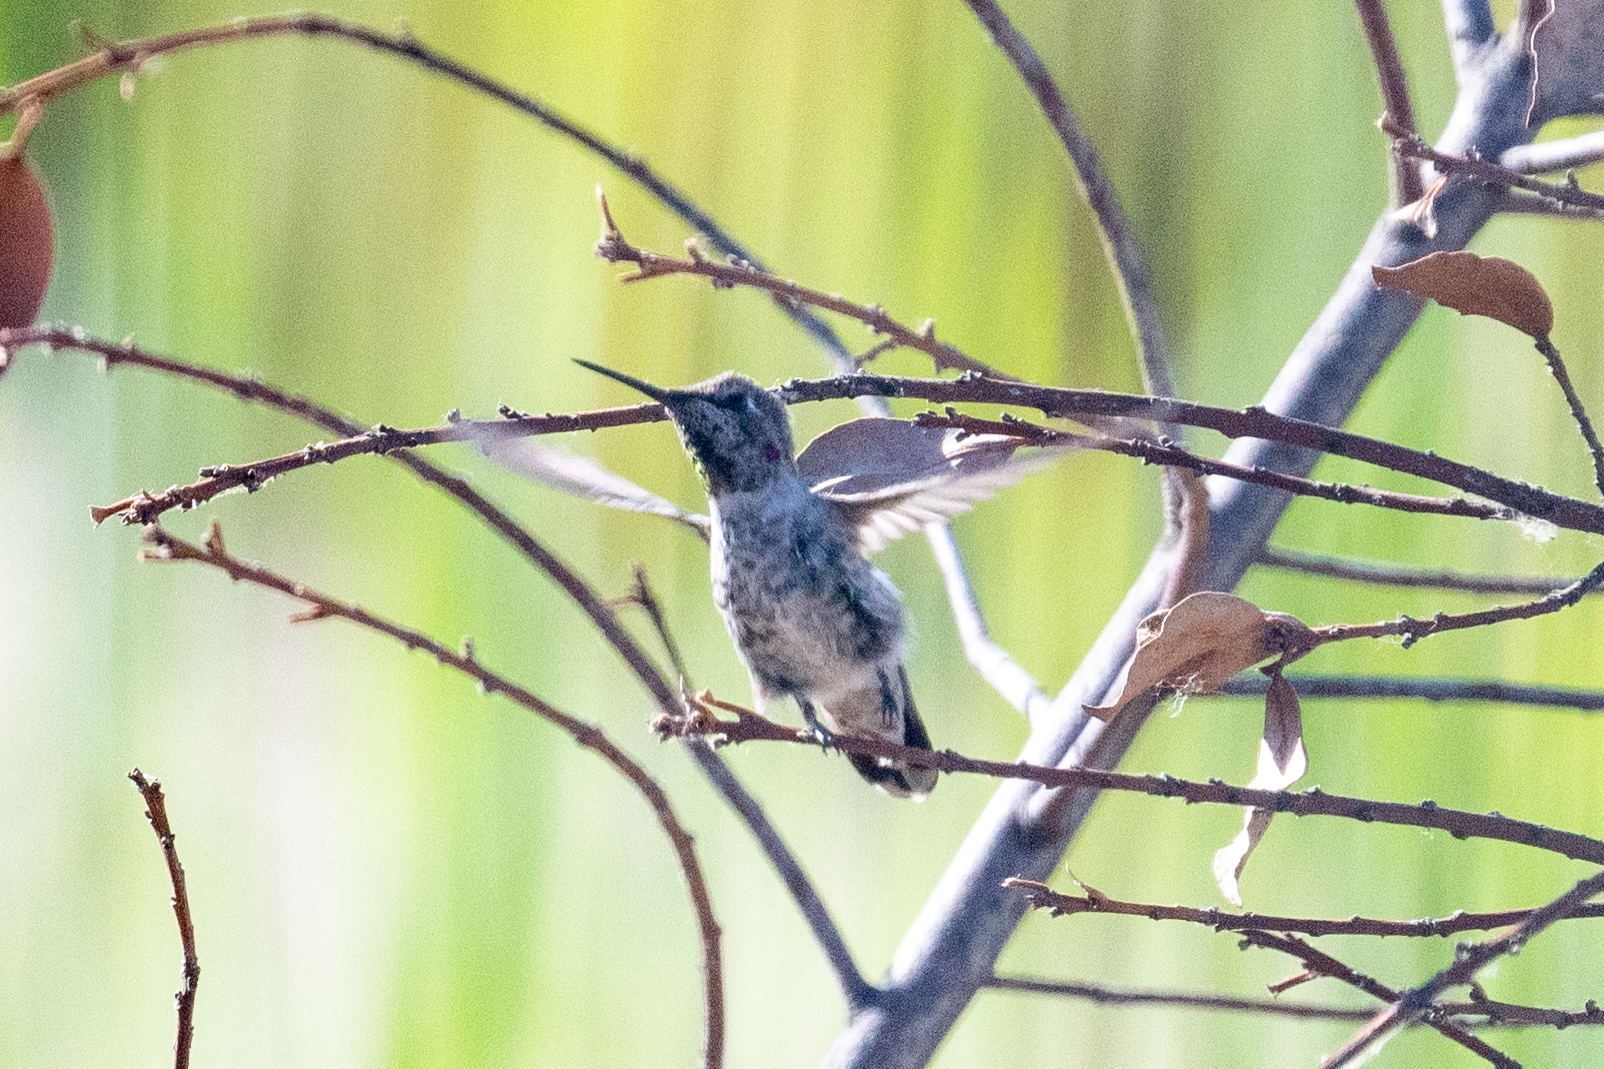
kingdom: Animalia
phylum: Chordata
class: Aves
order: Apodiformes
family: Trochilidae
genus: Calypte
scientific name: Calypte anna
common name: Anna's hummingbird
